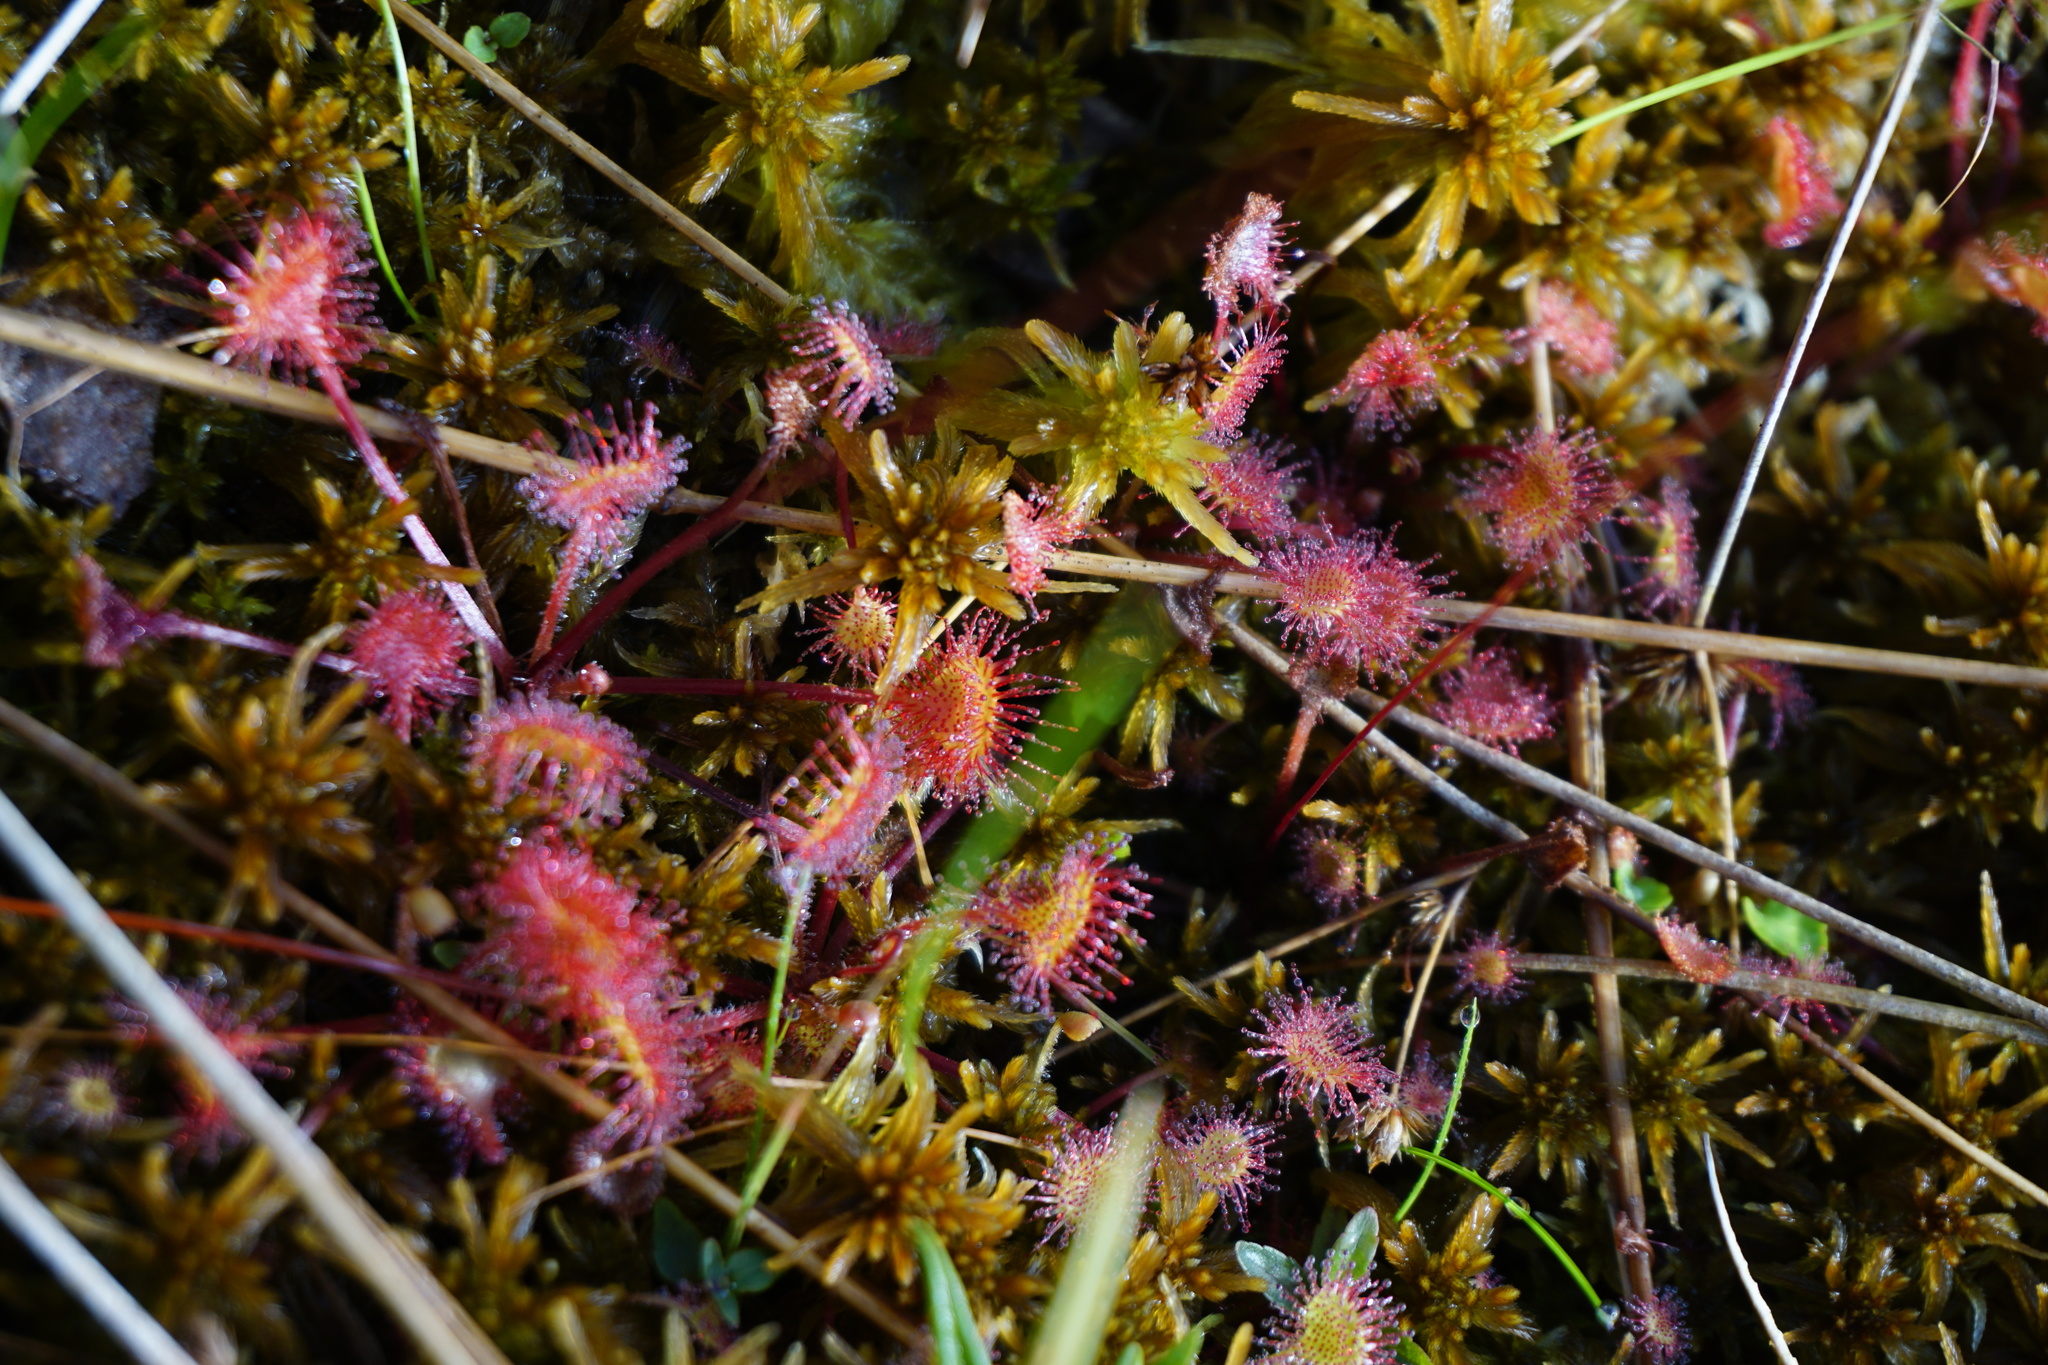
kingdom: Plantae
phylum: Tracheophyta
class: Magnoliopsida
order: Caryophyllales
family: Droseraceae
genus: Drosera
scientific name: Drosera rotundifolia
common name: Round-leaved sundew
